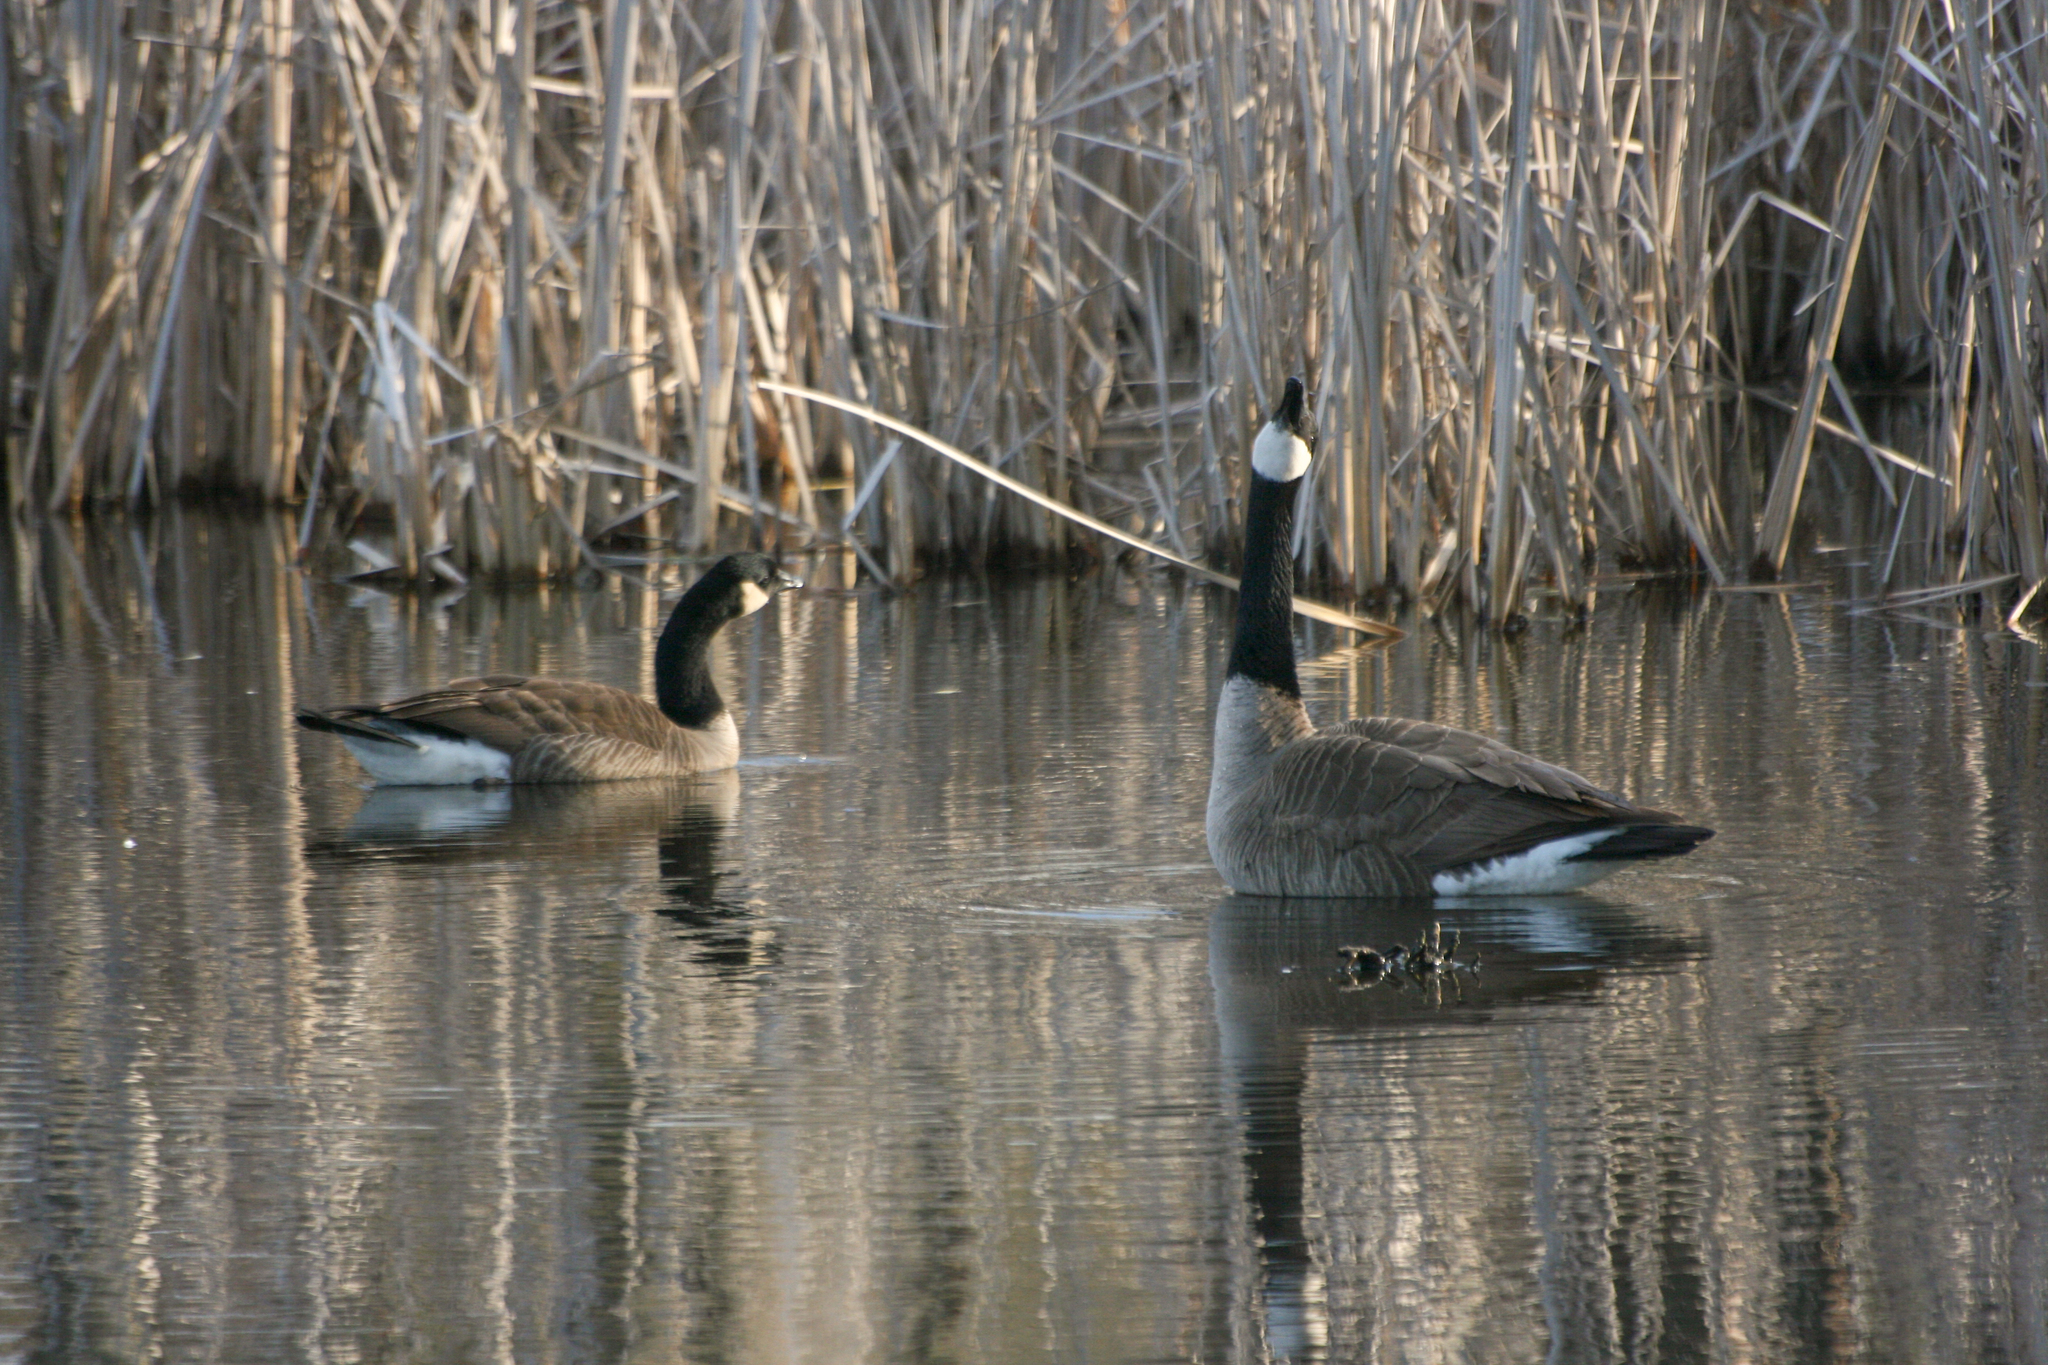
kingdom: Animalia
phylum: Chordata
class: Aves
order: Anseriformes
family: Anatidae
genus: Branta
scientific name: Branta canadensis
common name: Canada goose
